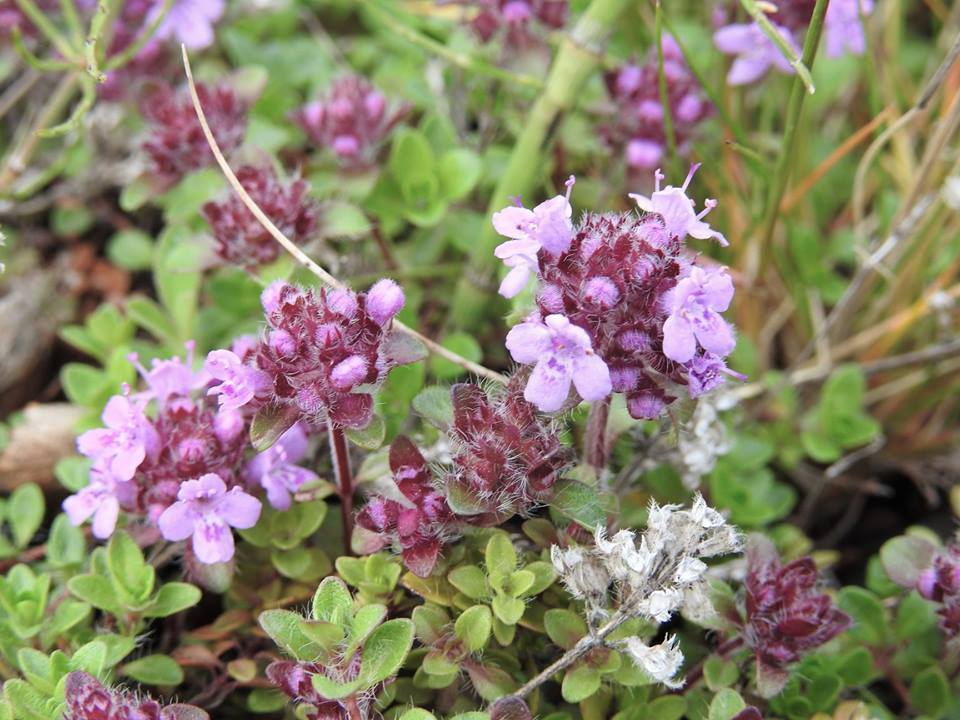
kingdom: Plantae
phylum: Tracheophyta
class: Magnoliopsida
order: Lamiales
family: Lamiaceae
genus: Thymus
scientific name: Thymus praecox
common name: Wild thyme
